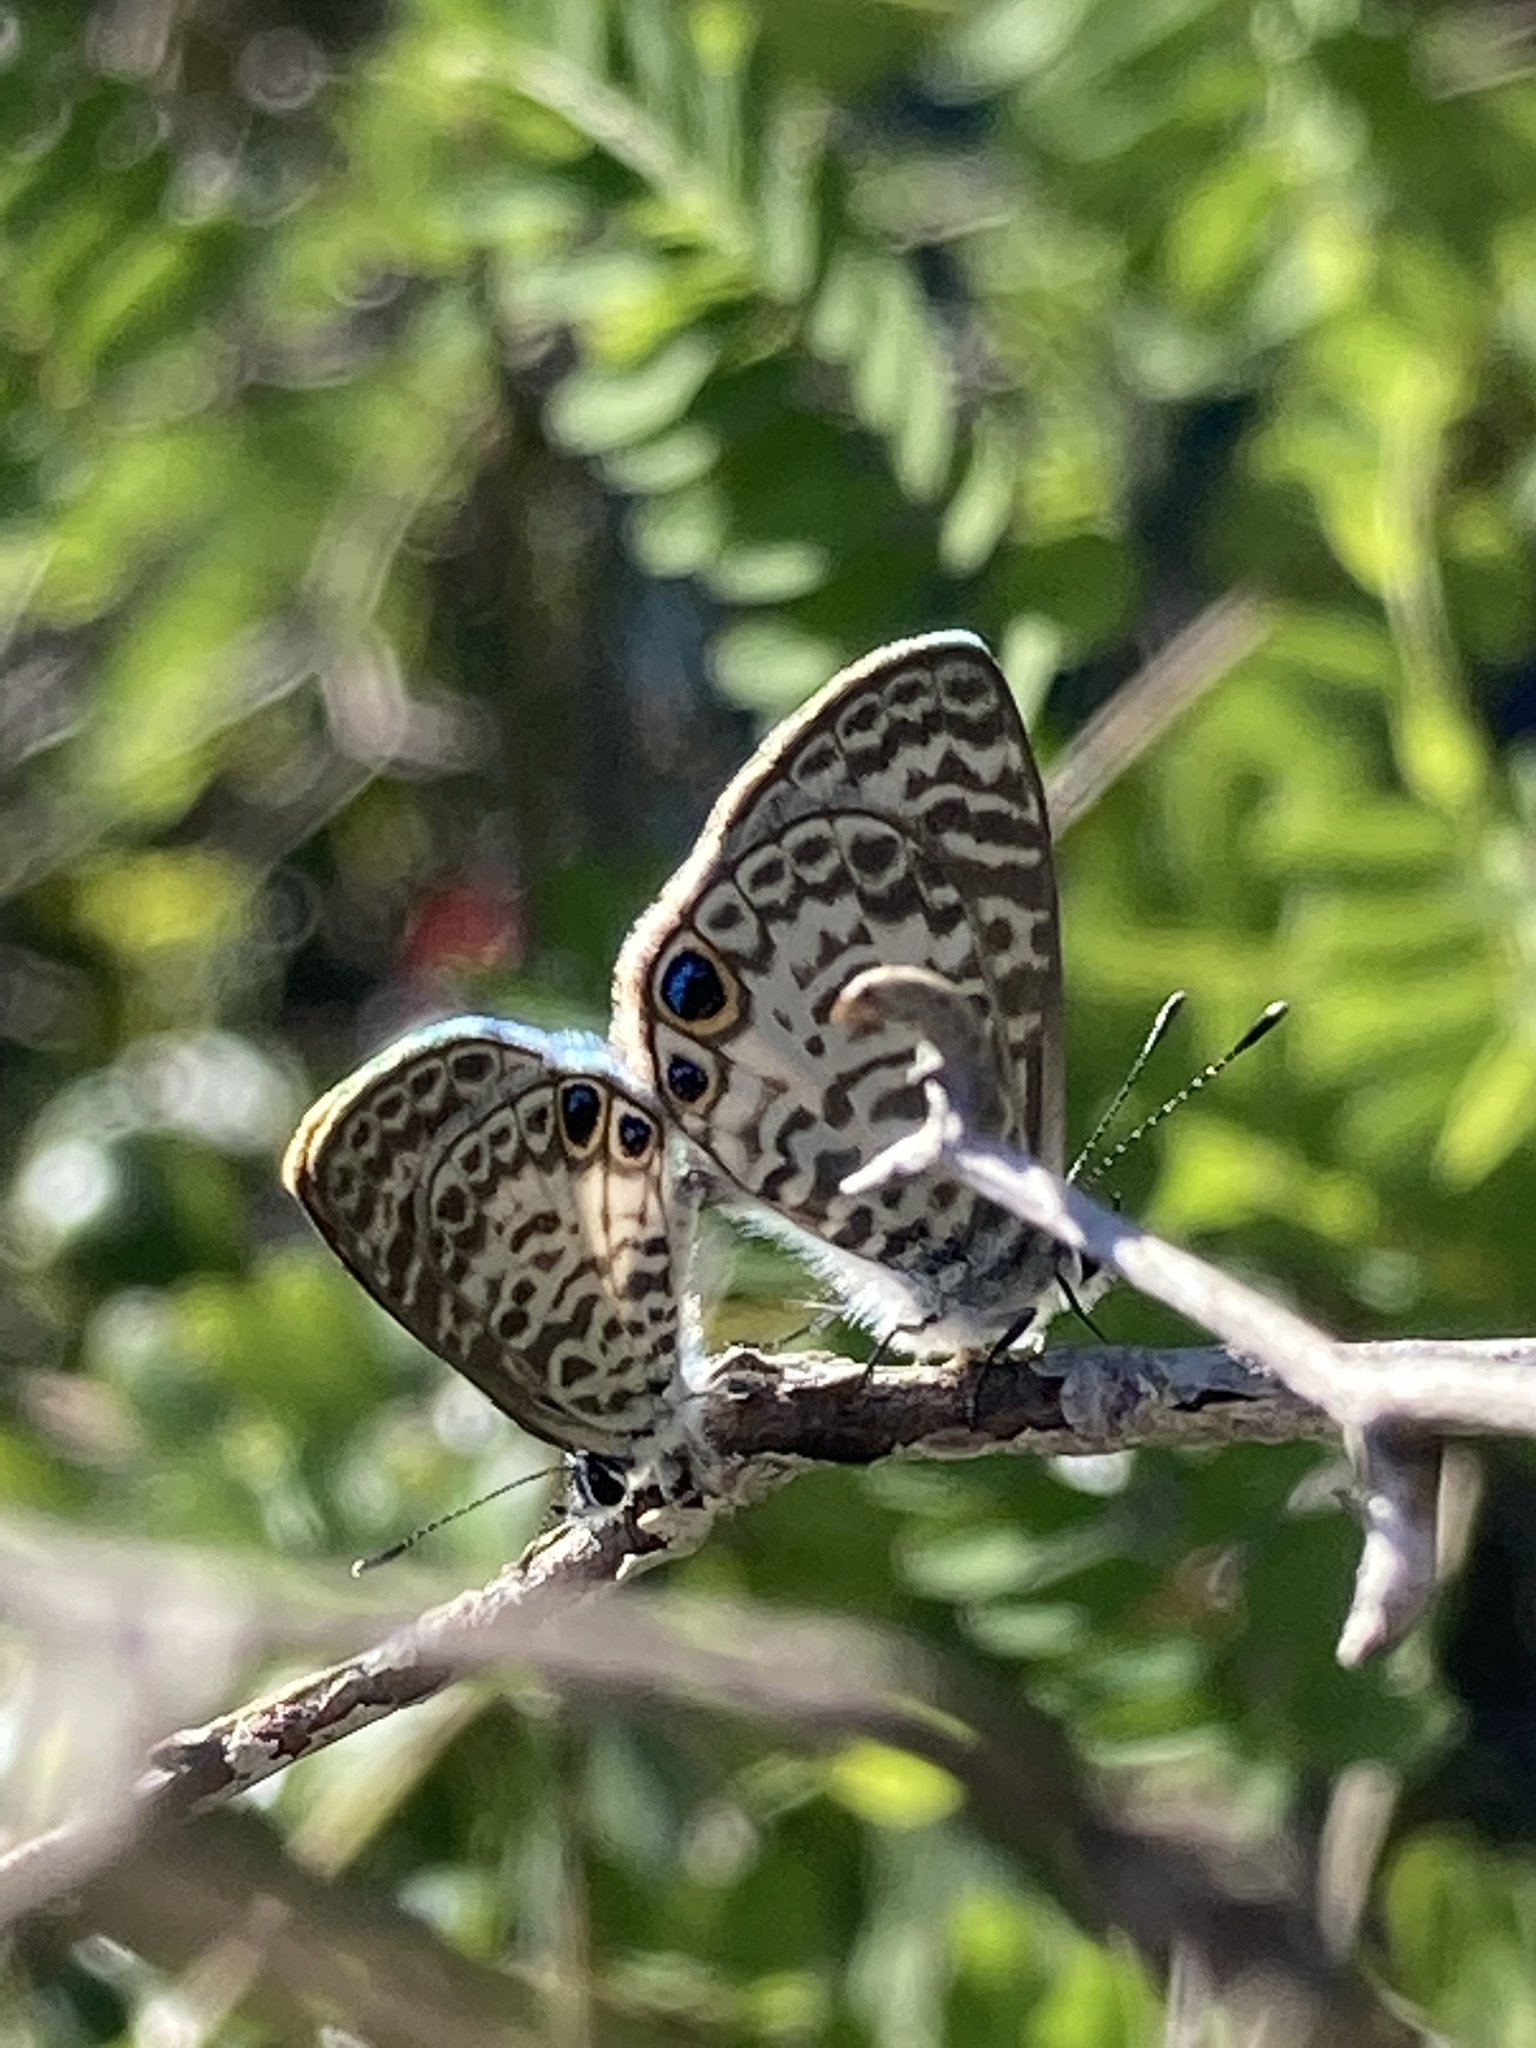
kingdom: Animalia
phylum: Arthropoda
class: Insecta
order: Lepidoptera
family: Lycaenidae
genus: Leptotes
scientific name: Leptotes cassius
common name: Cassius blue
